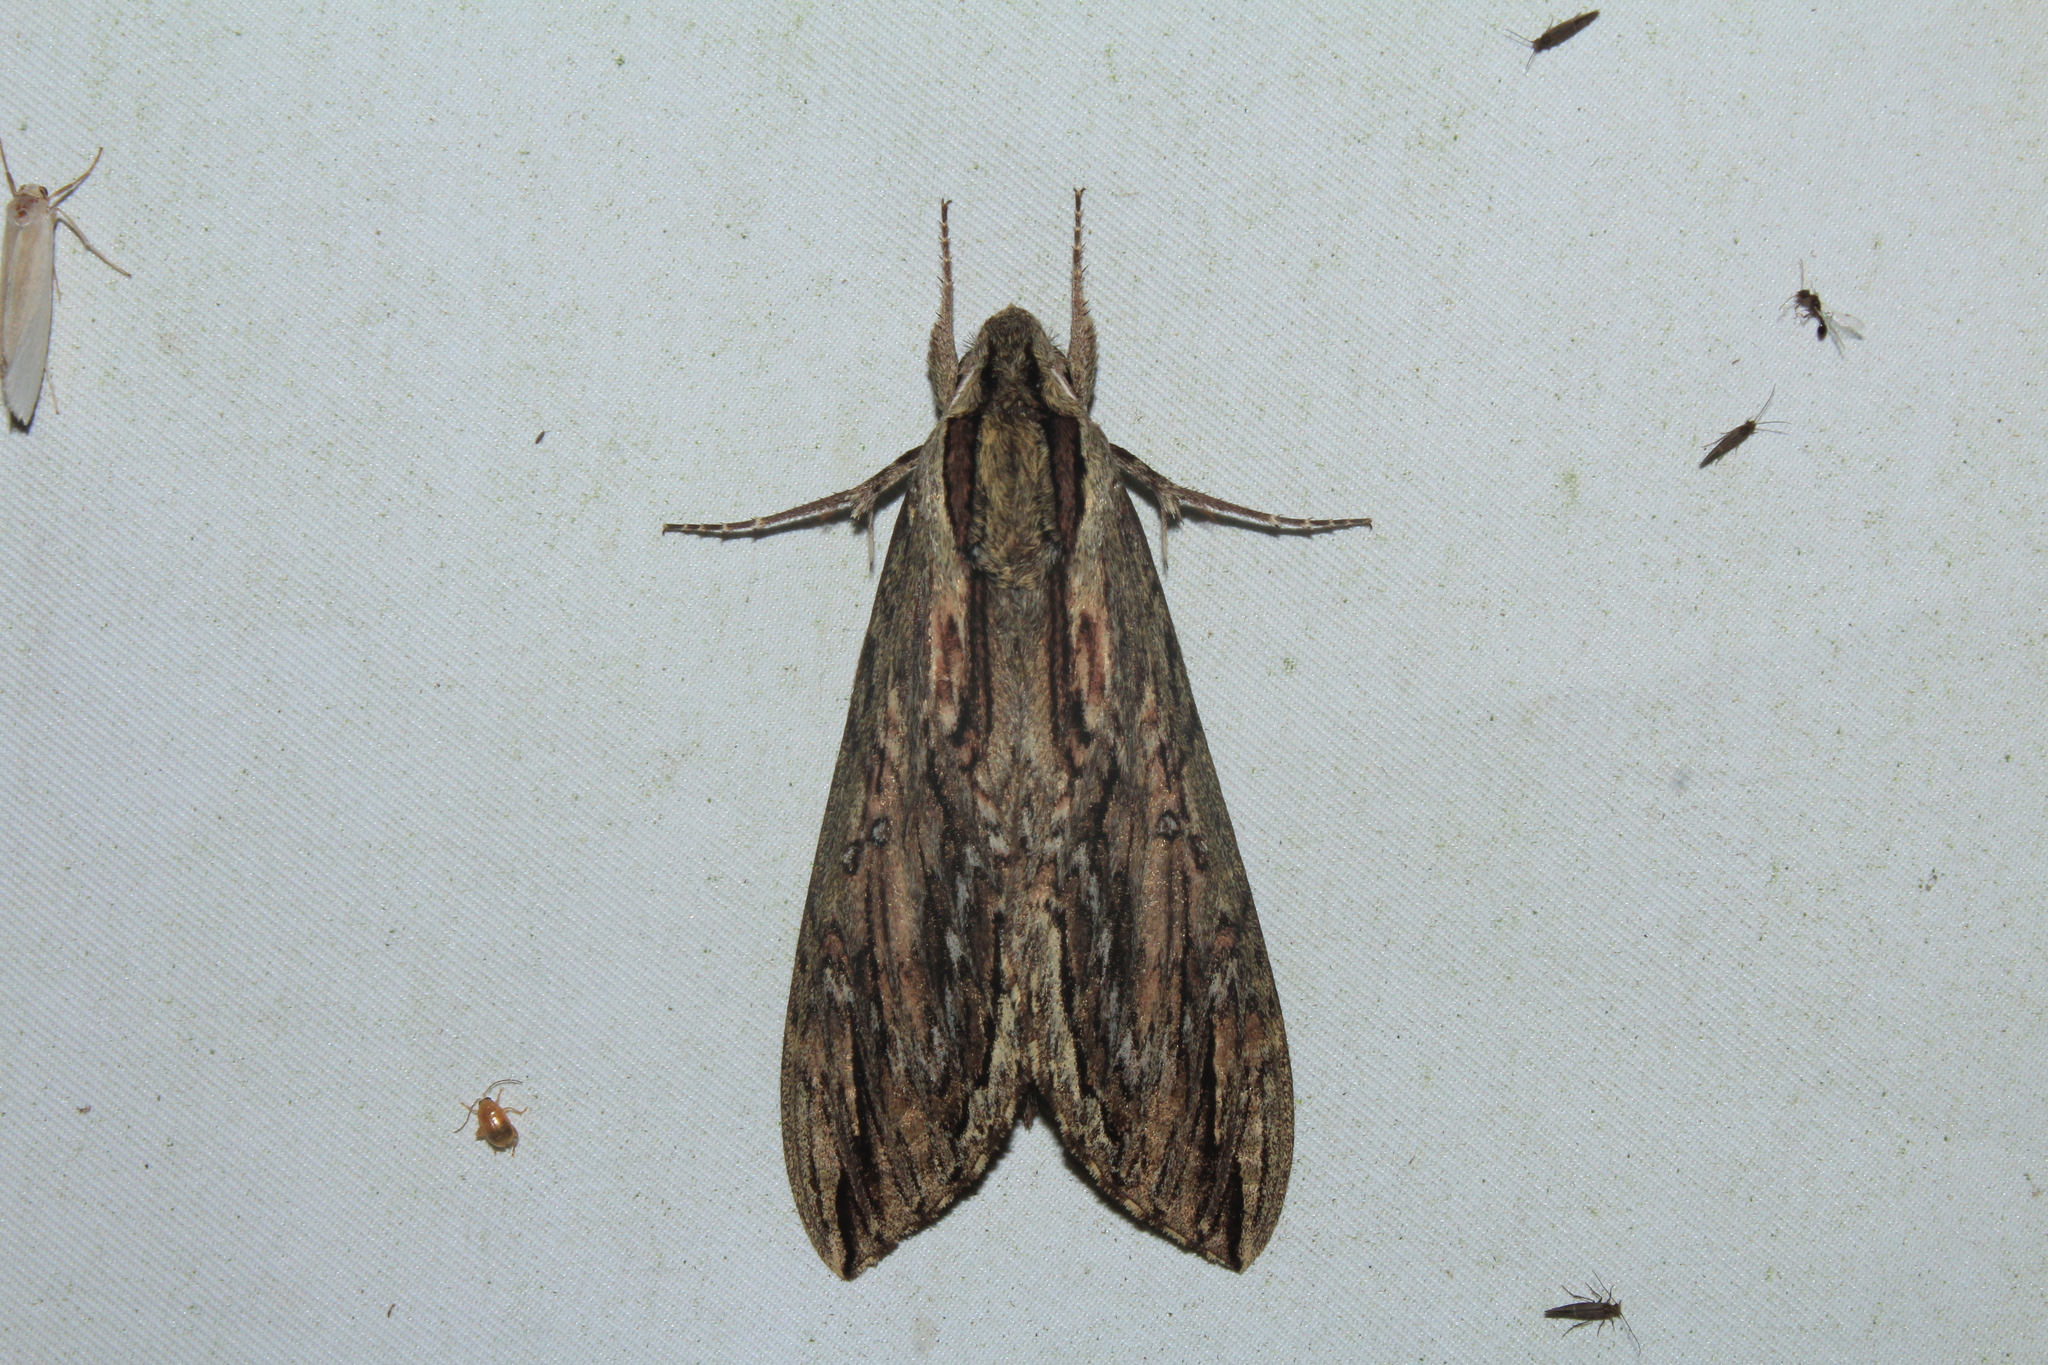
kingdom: Animalia
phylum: Arthropoda
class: Insecta
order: Lepidoptera
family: Sphingidae
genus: Lintneria
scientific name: Lintneria merops
